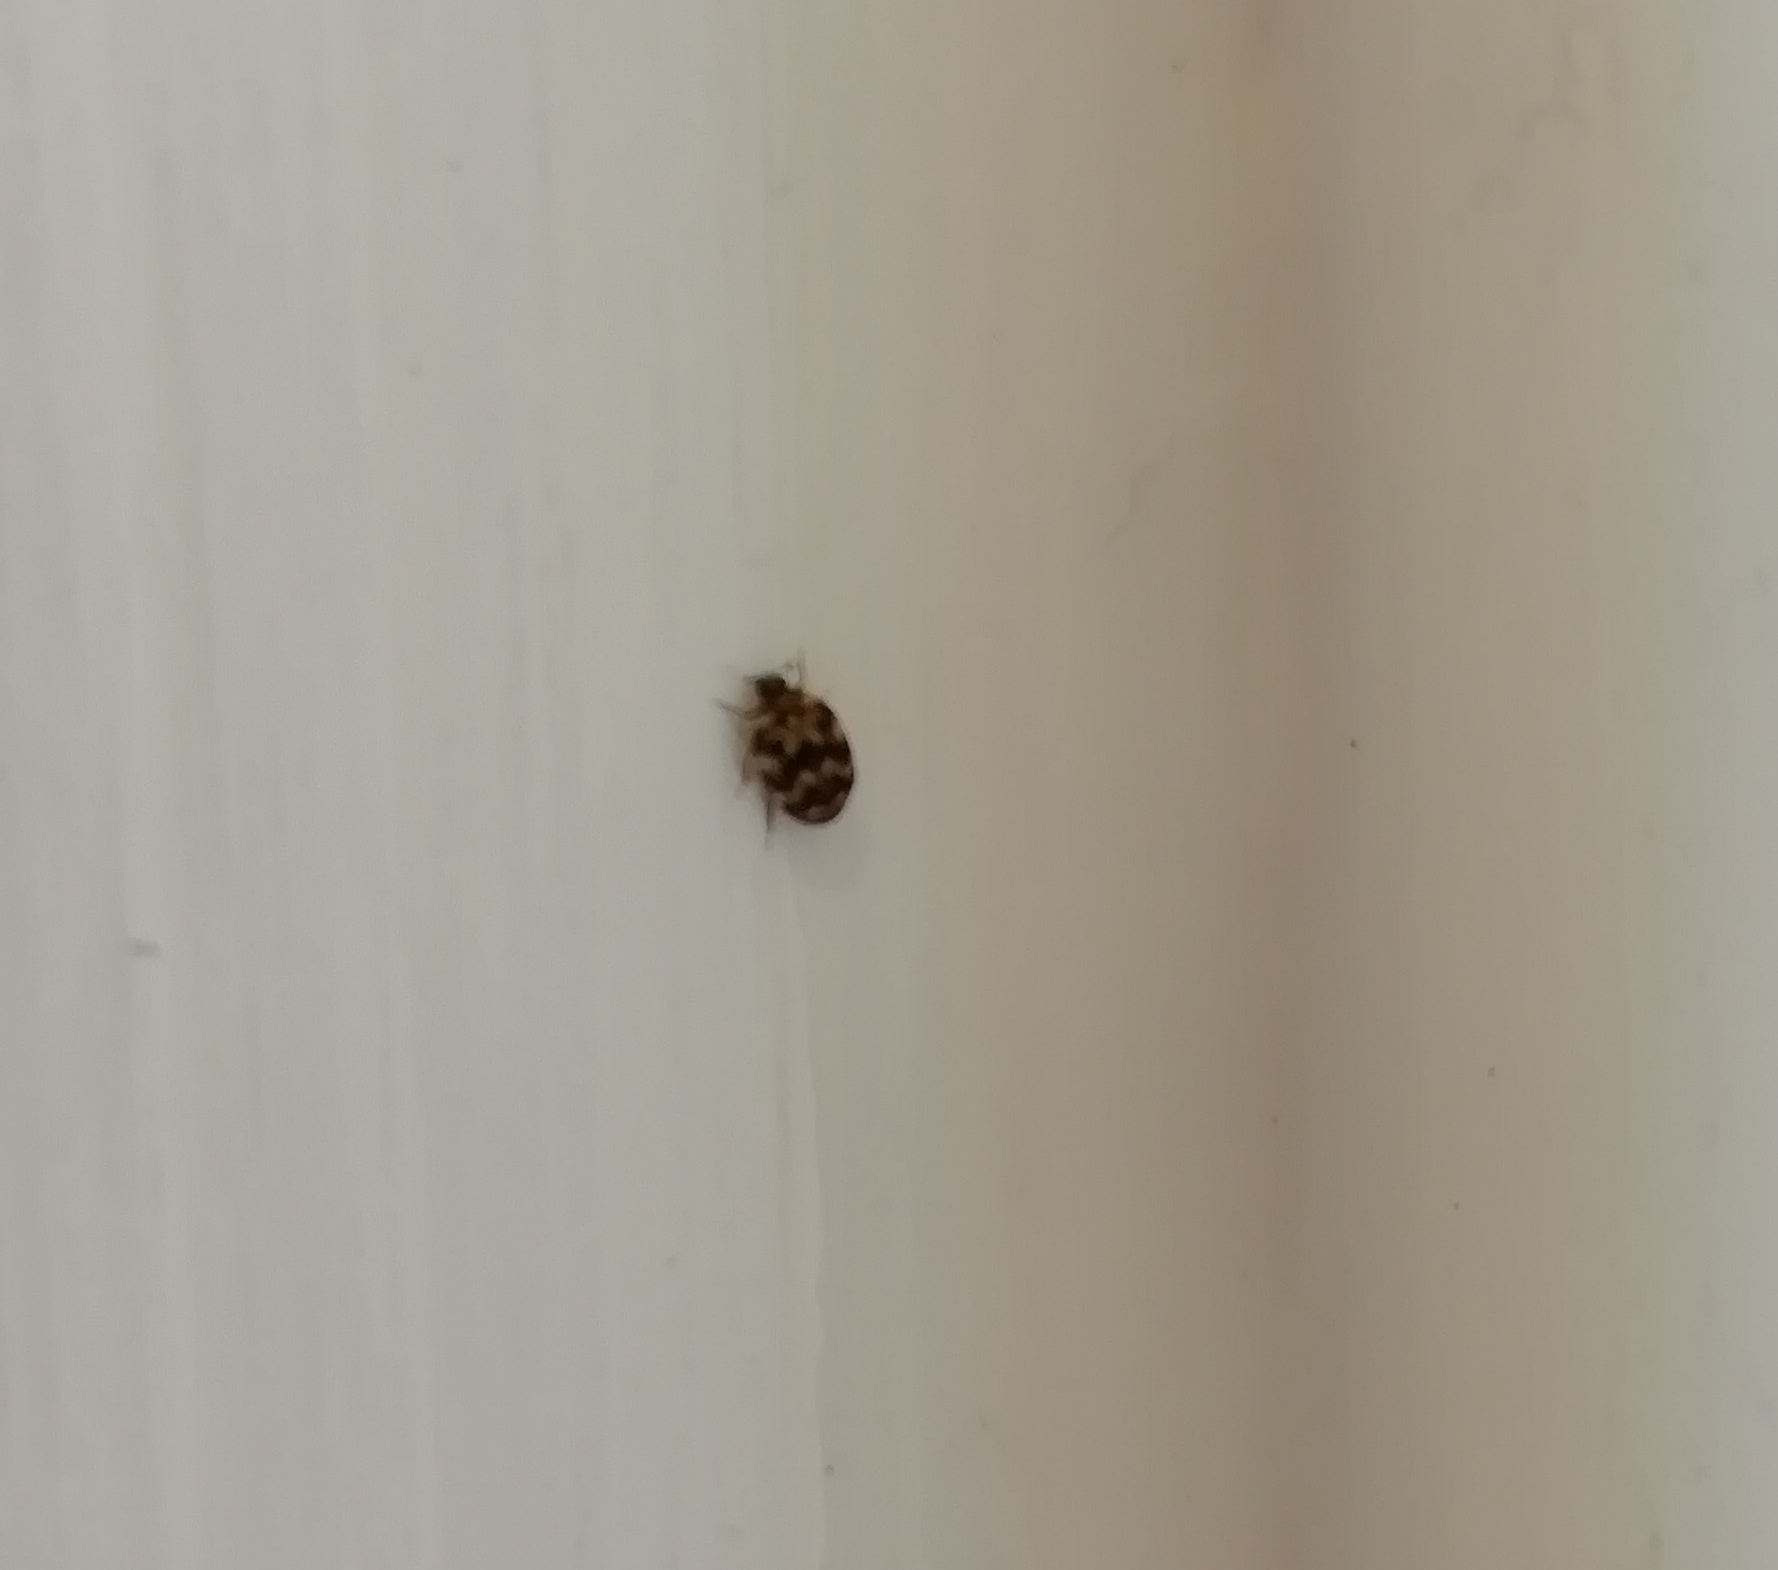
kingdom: Animalia
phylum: Arthropoda
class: Insecta
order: Coleoptera
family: Dermestidae
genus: Anthrenus
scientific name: Anthrenus verbasci
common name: Varied carpet beetle
